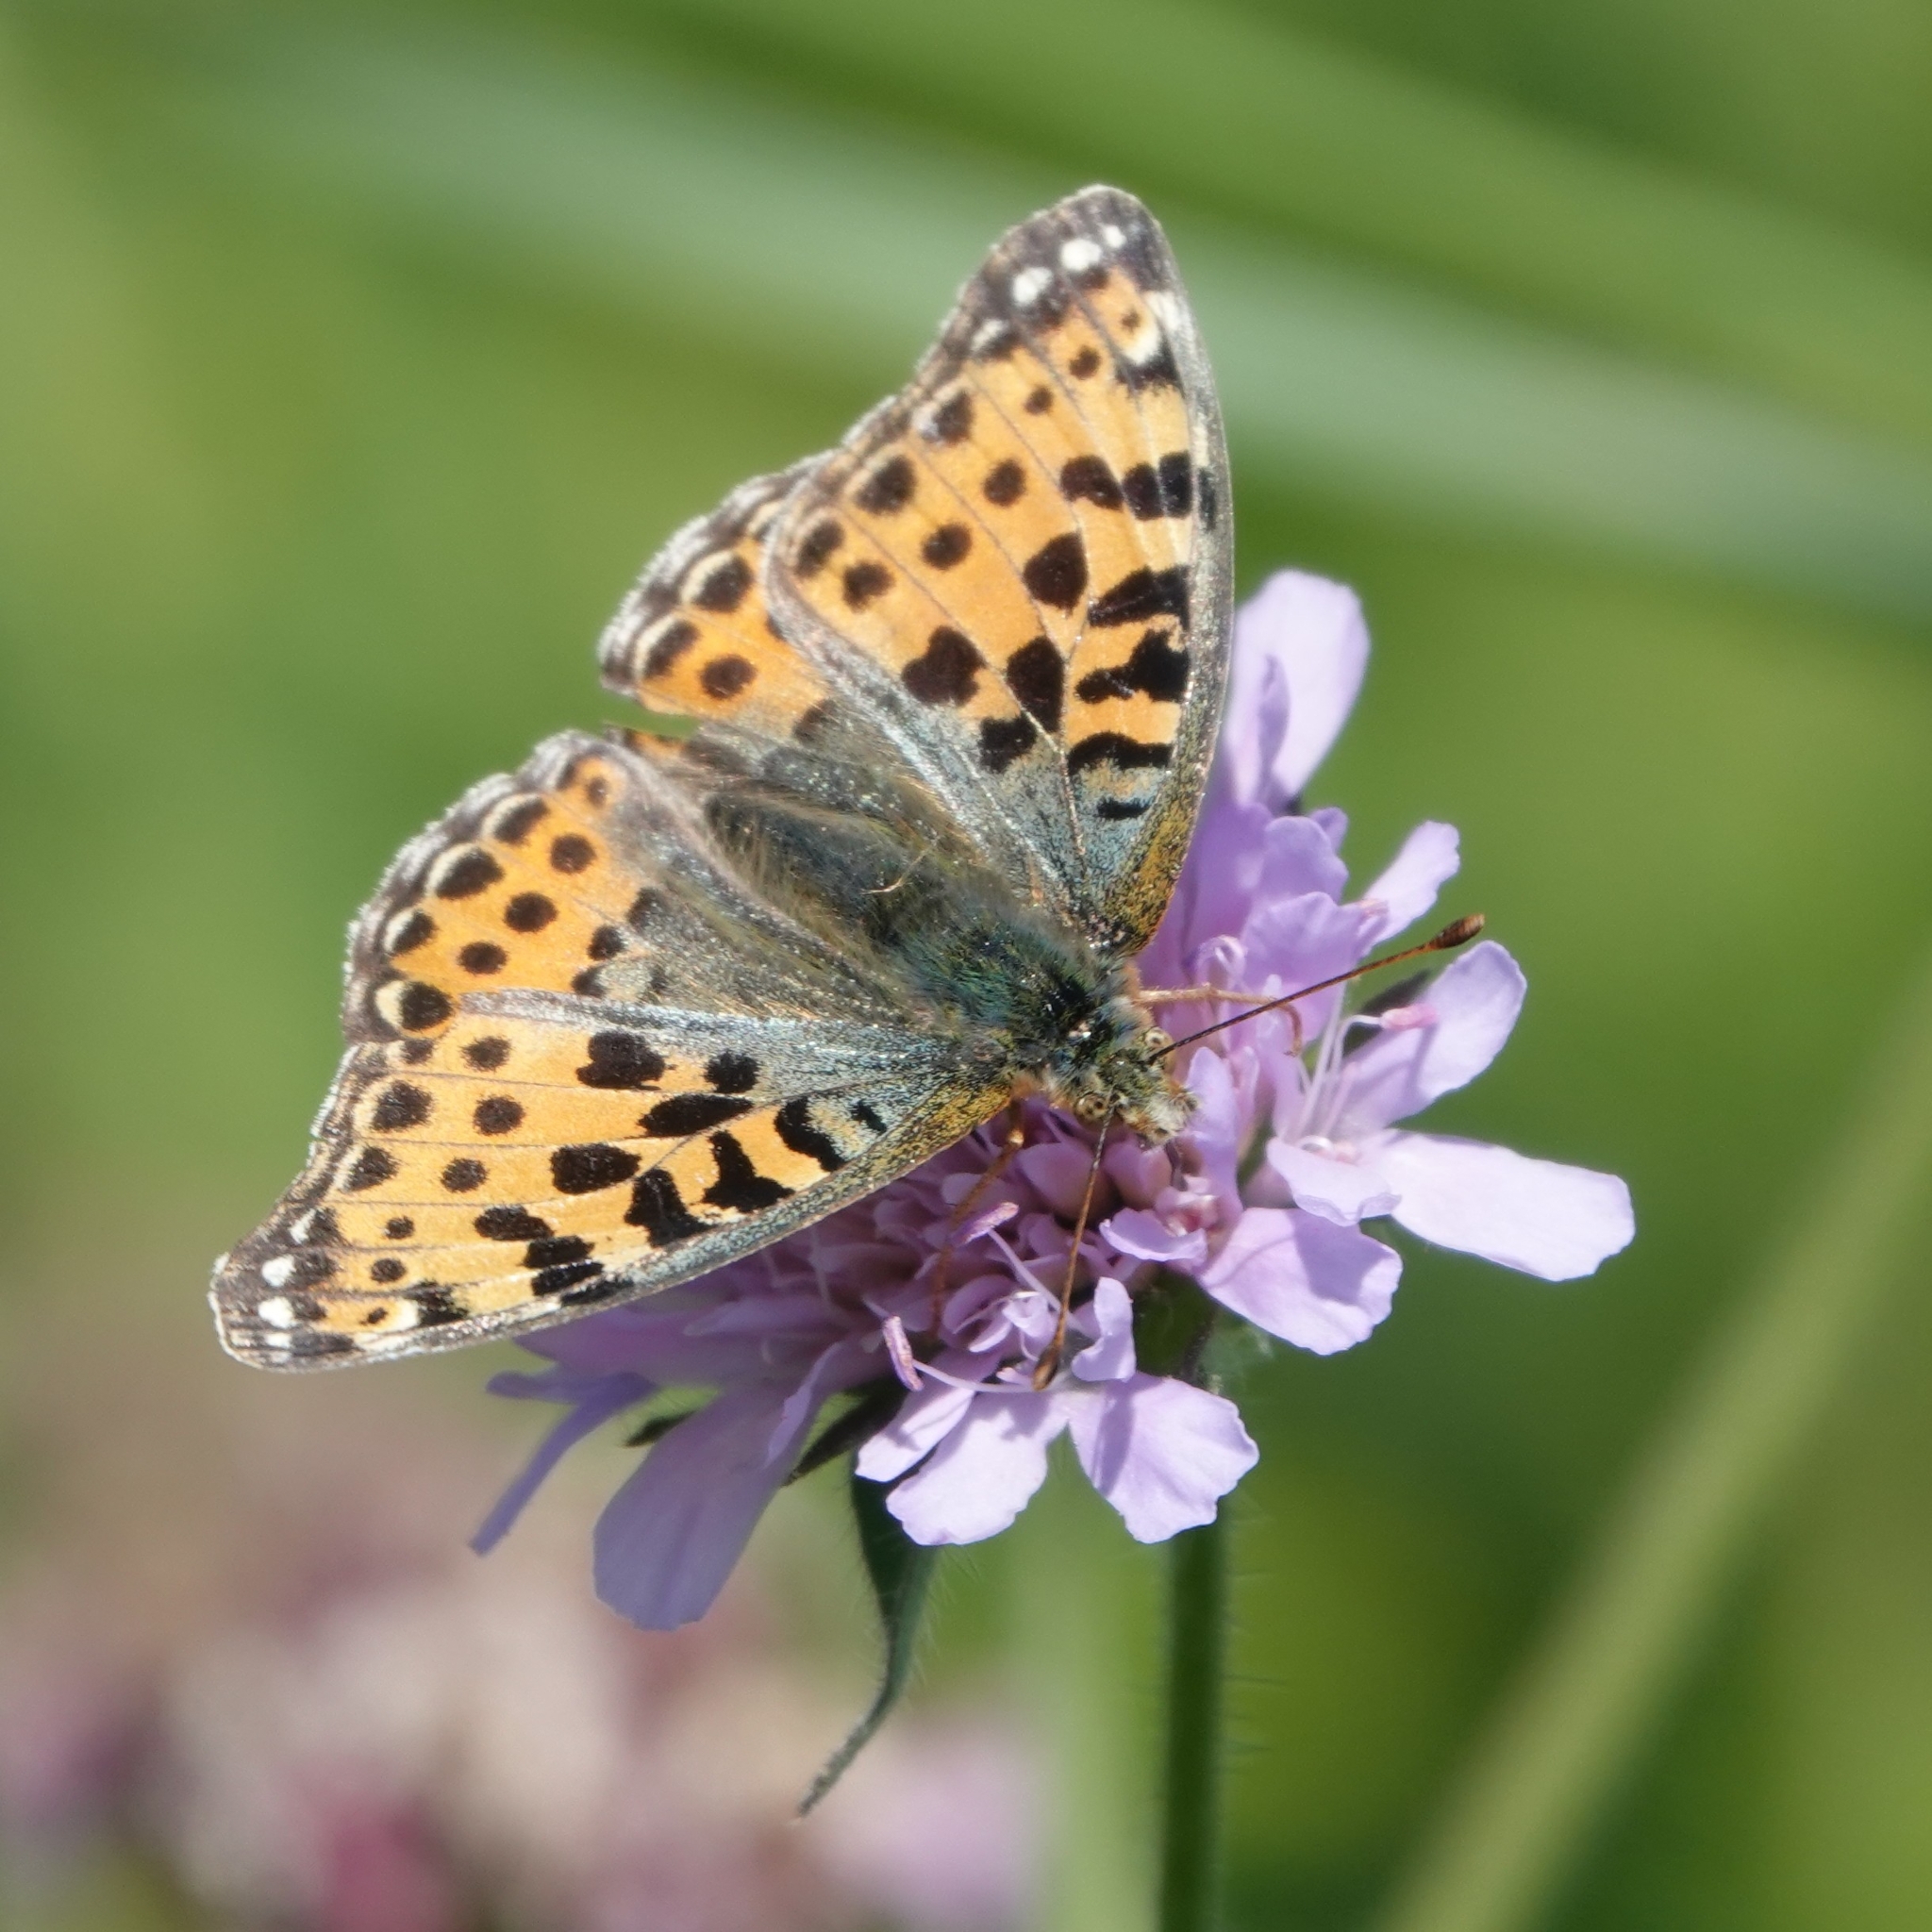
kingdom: Animalia
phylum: Arthropoda
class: Insecta
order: Lepidoptera
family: Nymphalidae
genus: Issoria
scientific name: Issoria lathonia
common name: Queen of spain fritillary
